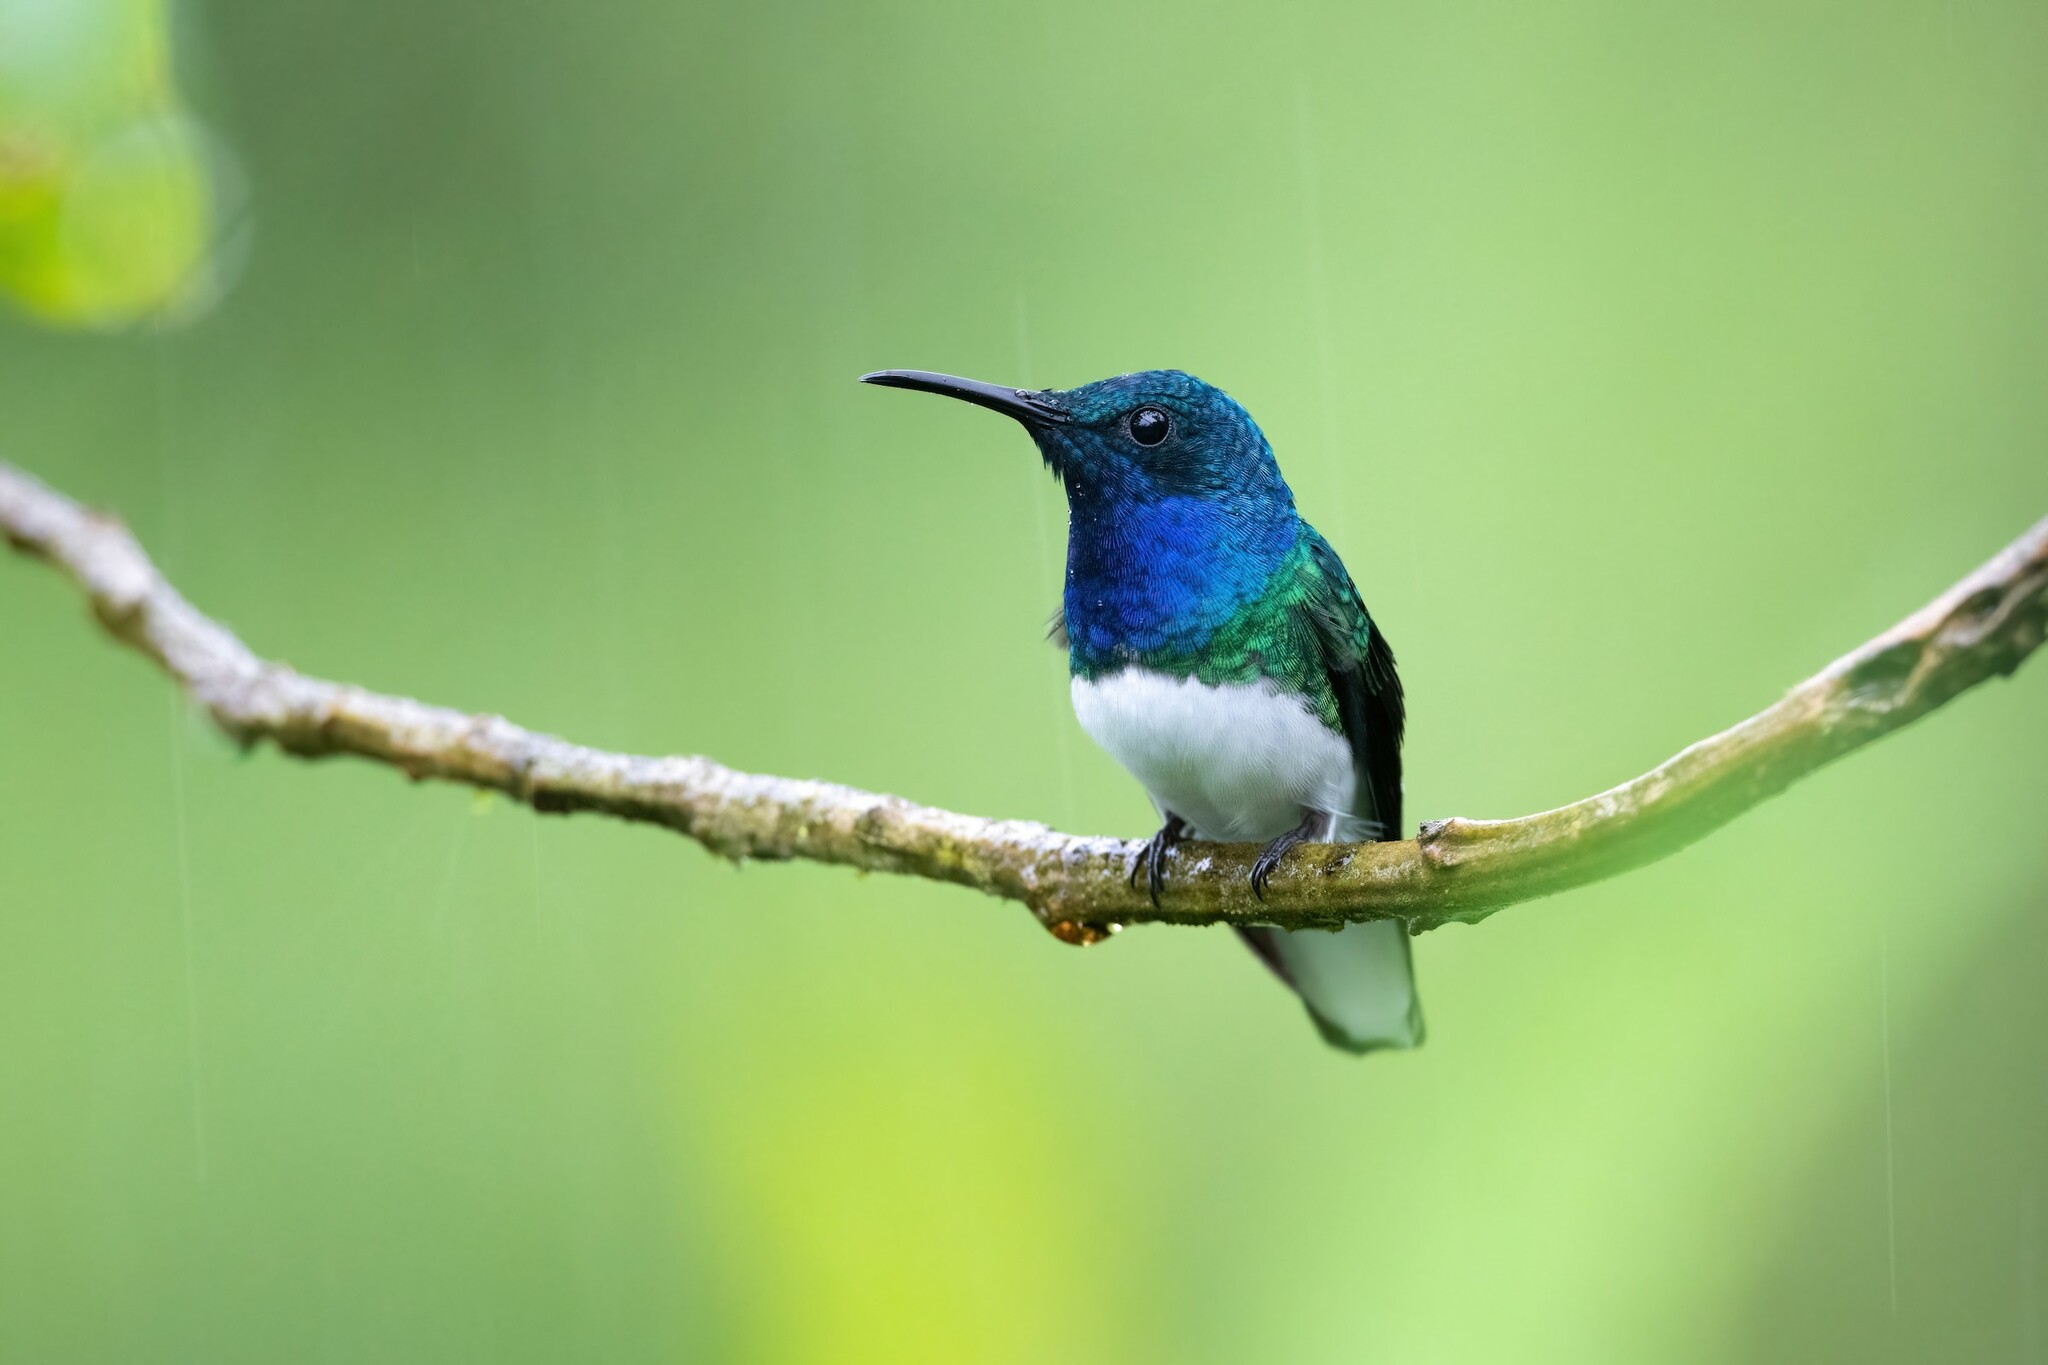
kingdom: Animalia
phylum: Chordata
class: Aves
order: Apodiformes
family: Trochilidae
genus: Florisuga
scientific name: Florisuga mellivora
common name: White-necked jacobin
